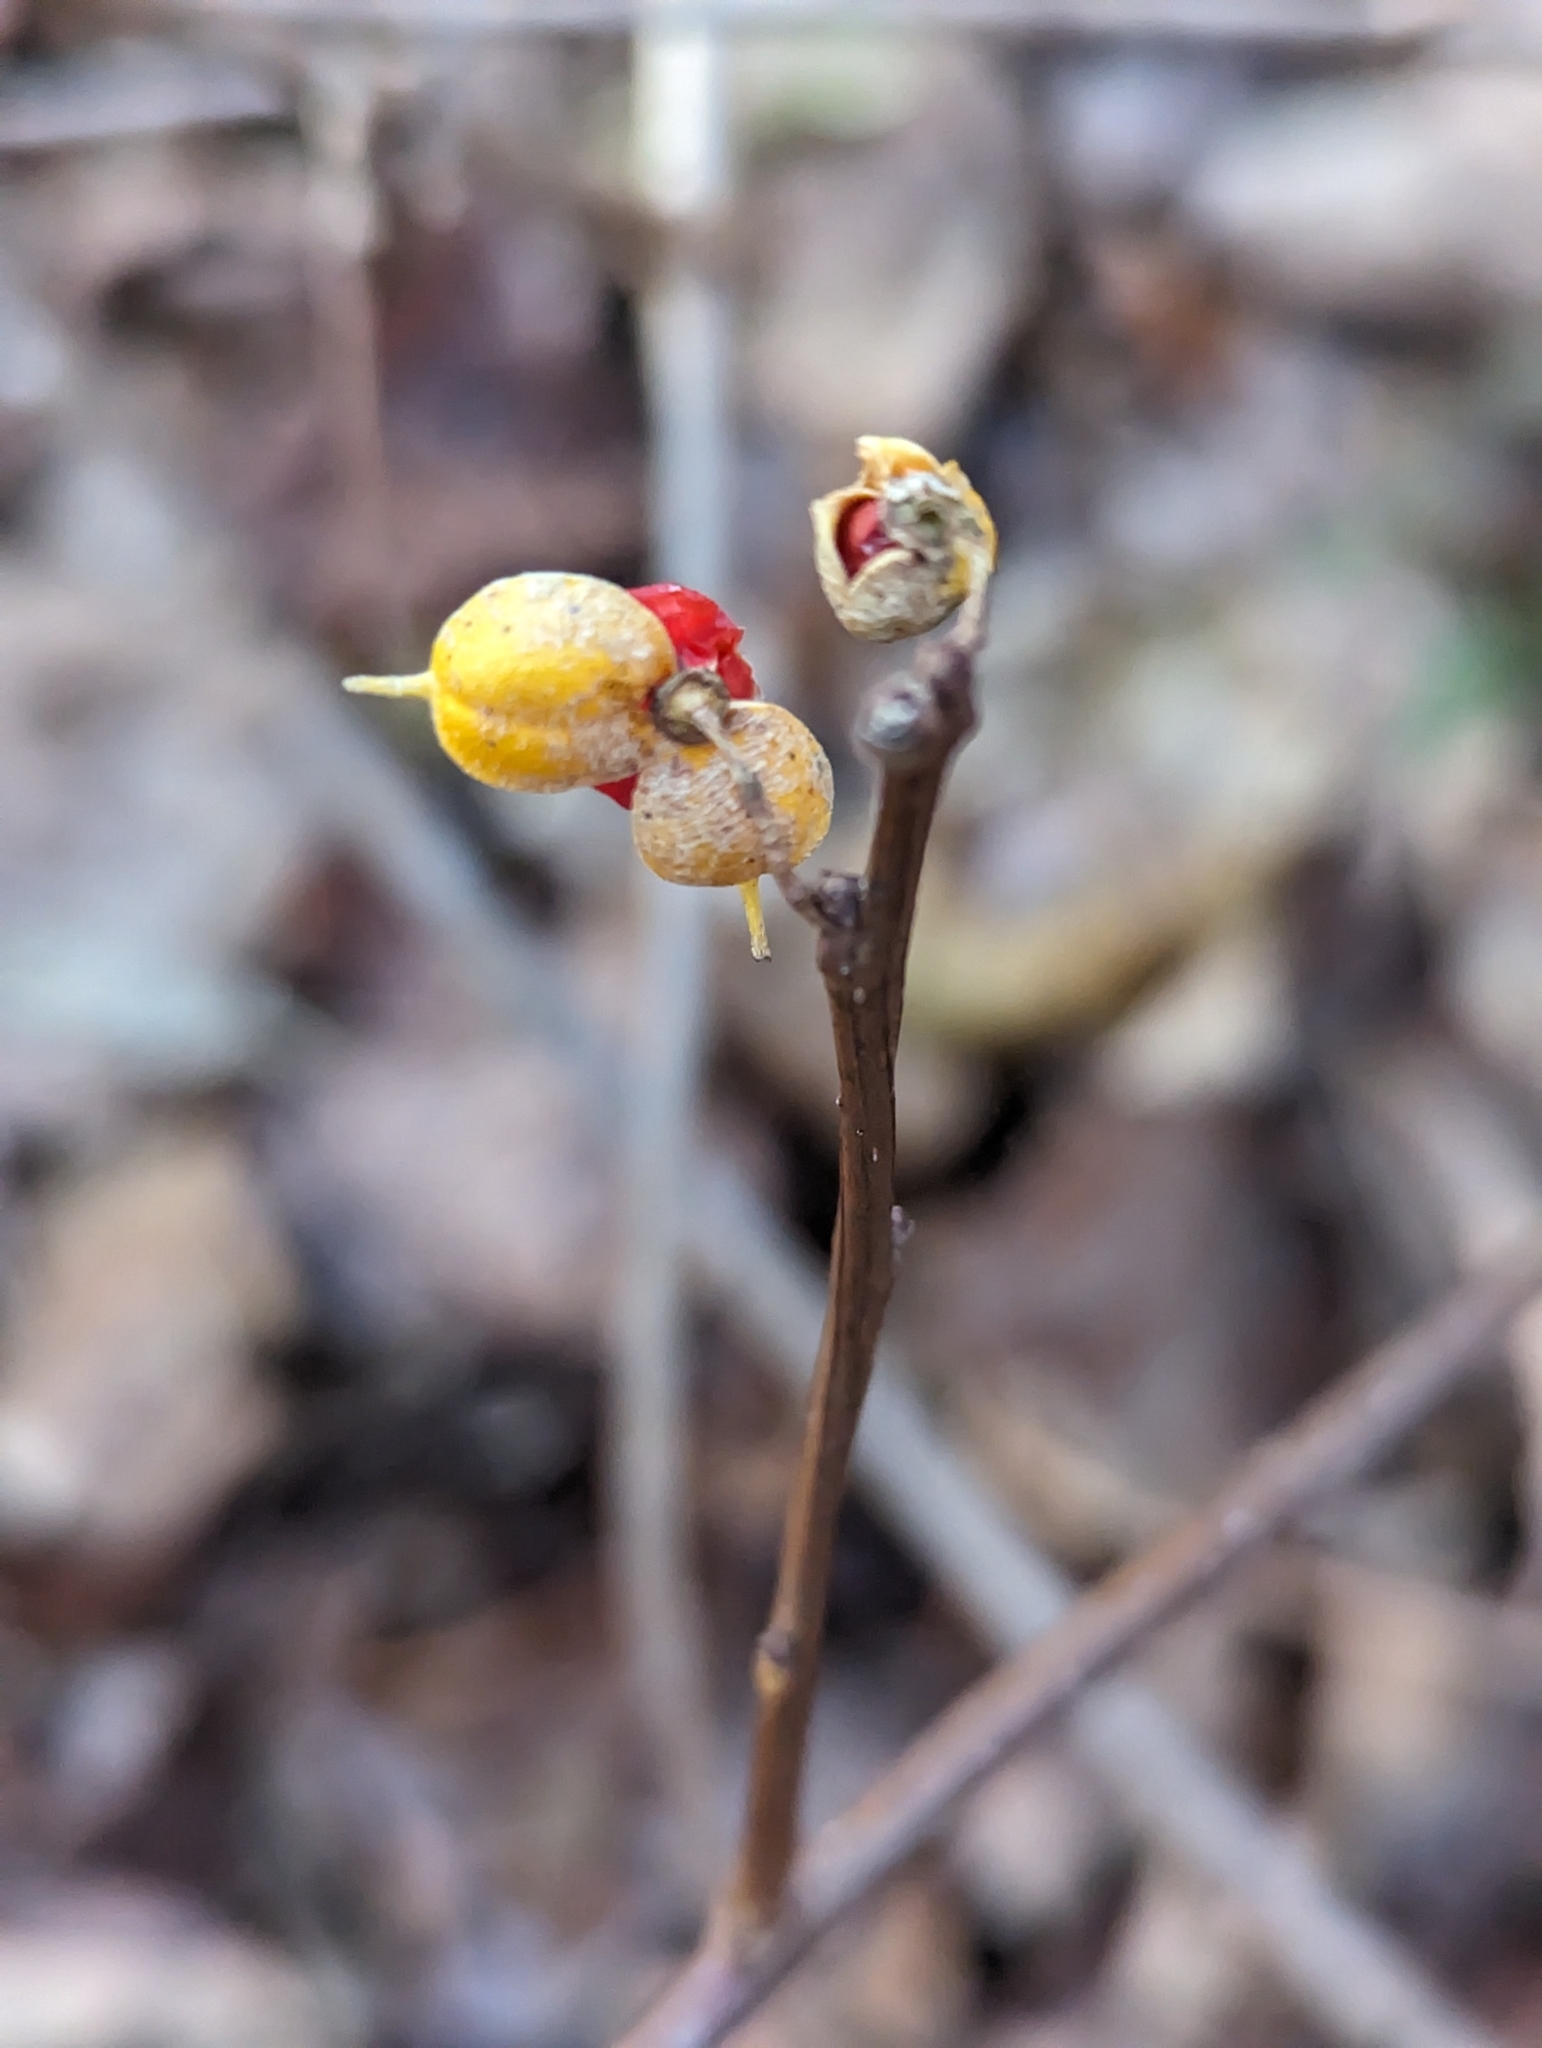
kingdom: Plantae
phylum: Tracheophyta
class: Magnoliopsida
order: Celastrales
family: Celastraceae
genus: Celastrus
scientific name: Celastrus orbiculatus
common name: Oriental bittersweet
